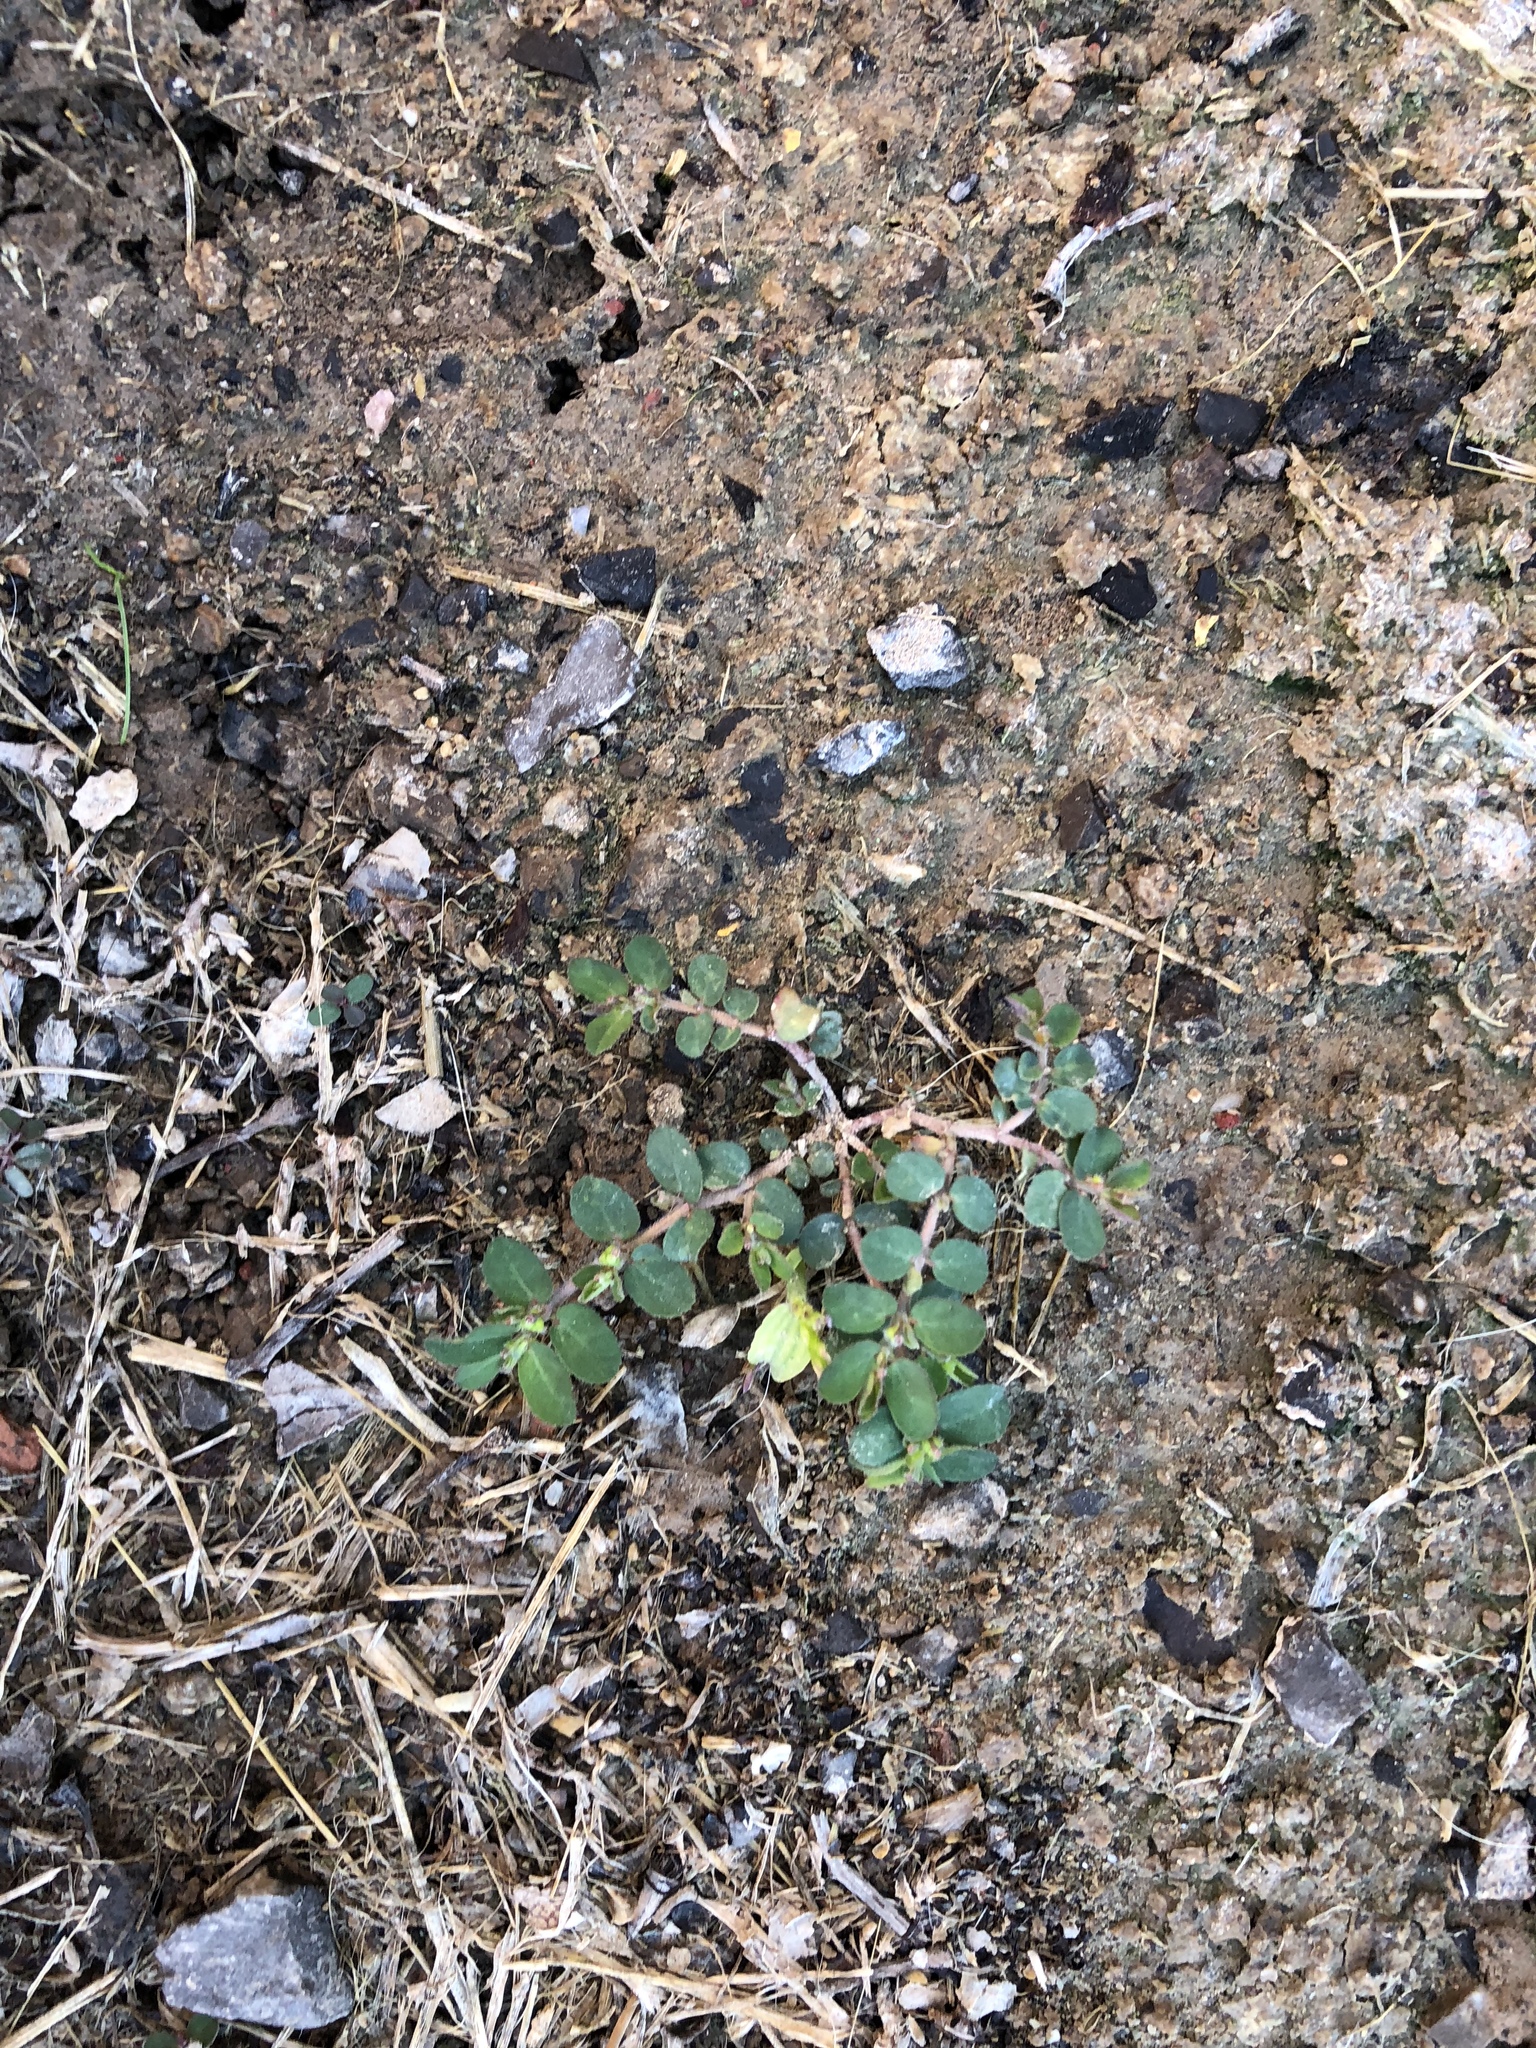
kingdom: Plantae
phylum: Tracheophyta
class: Magnoliopsida
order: Malpighiales
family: Euphorbiaceae
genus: Euphorbia
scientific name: Euphorbia prostrata
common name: Prostrate sandmat
